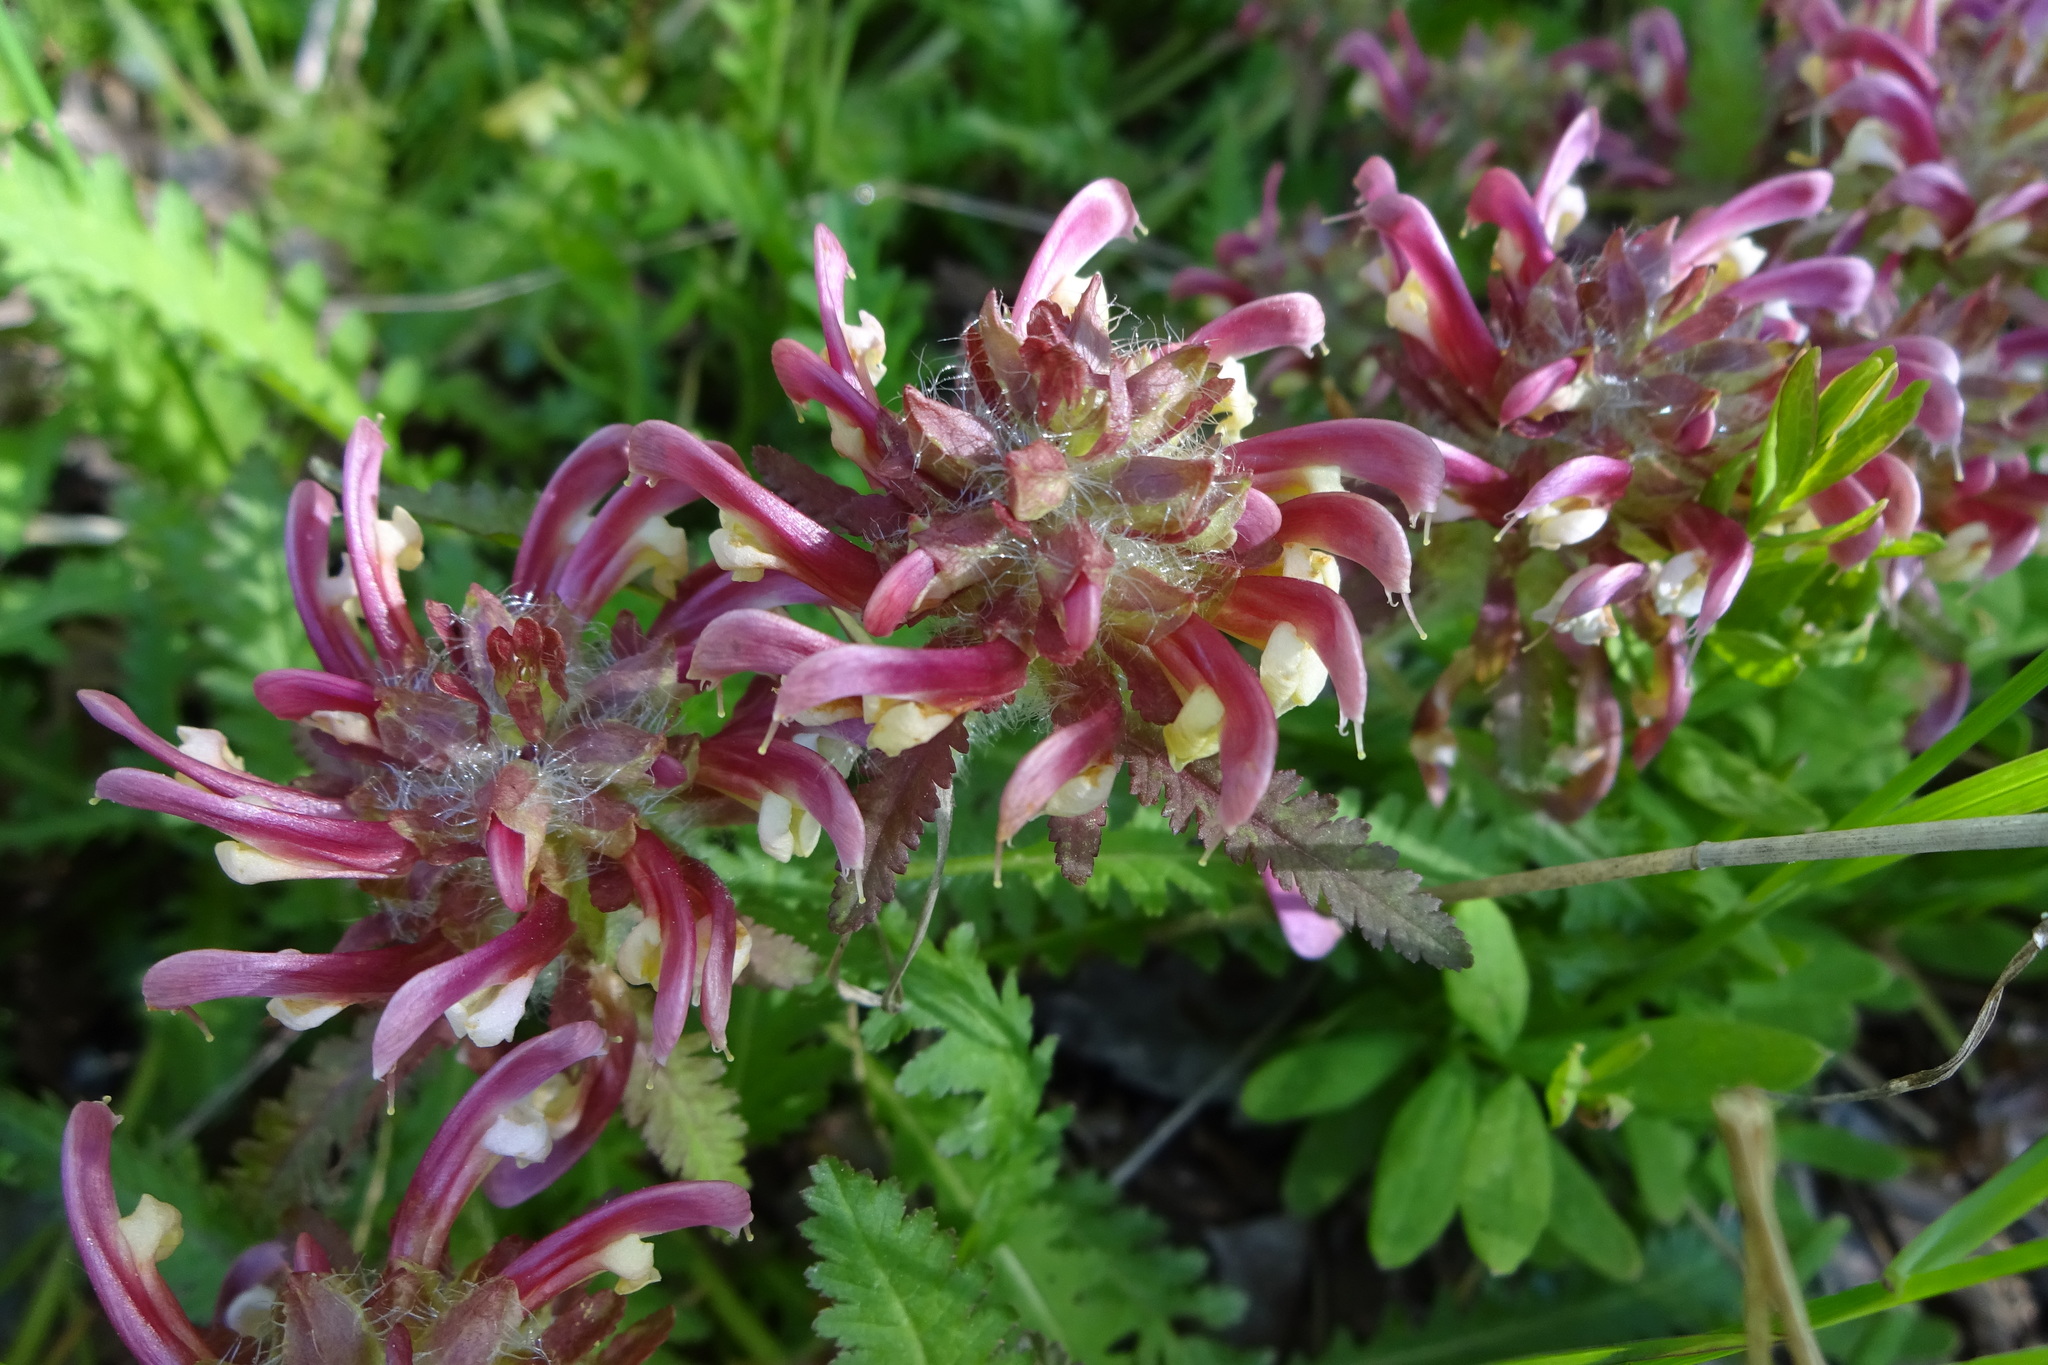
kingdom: Plantae
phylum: Tracheophyta
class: Magnoliopsida
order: Lamiales
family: Orobanchaceae
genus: Pedicularis
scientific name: Pedicularis canadensis
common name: Early lousewort
